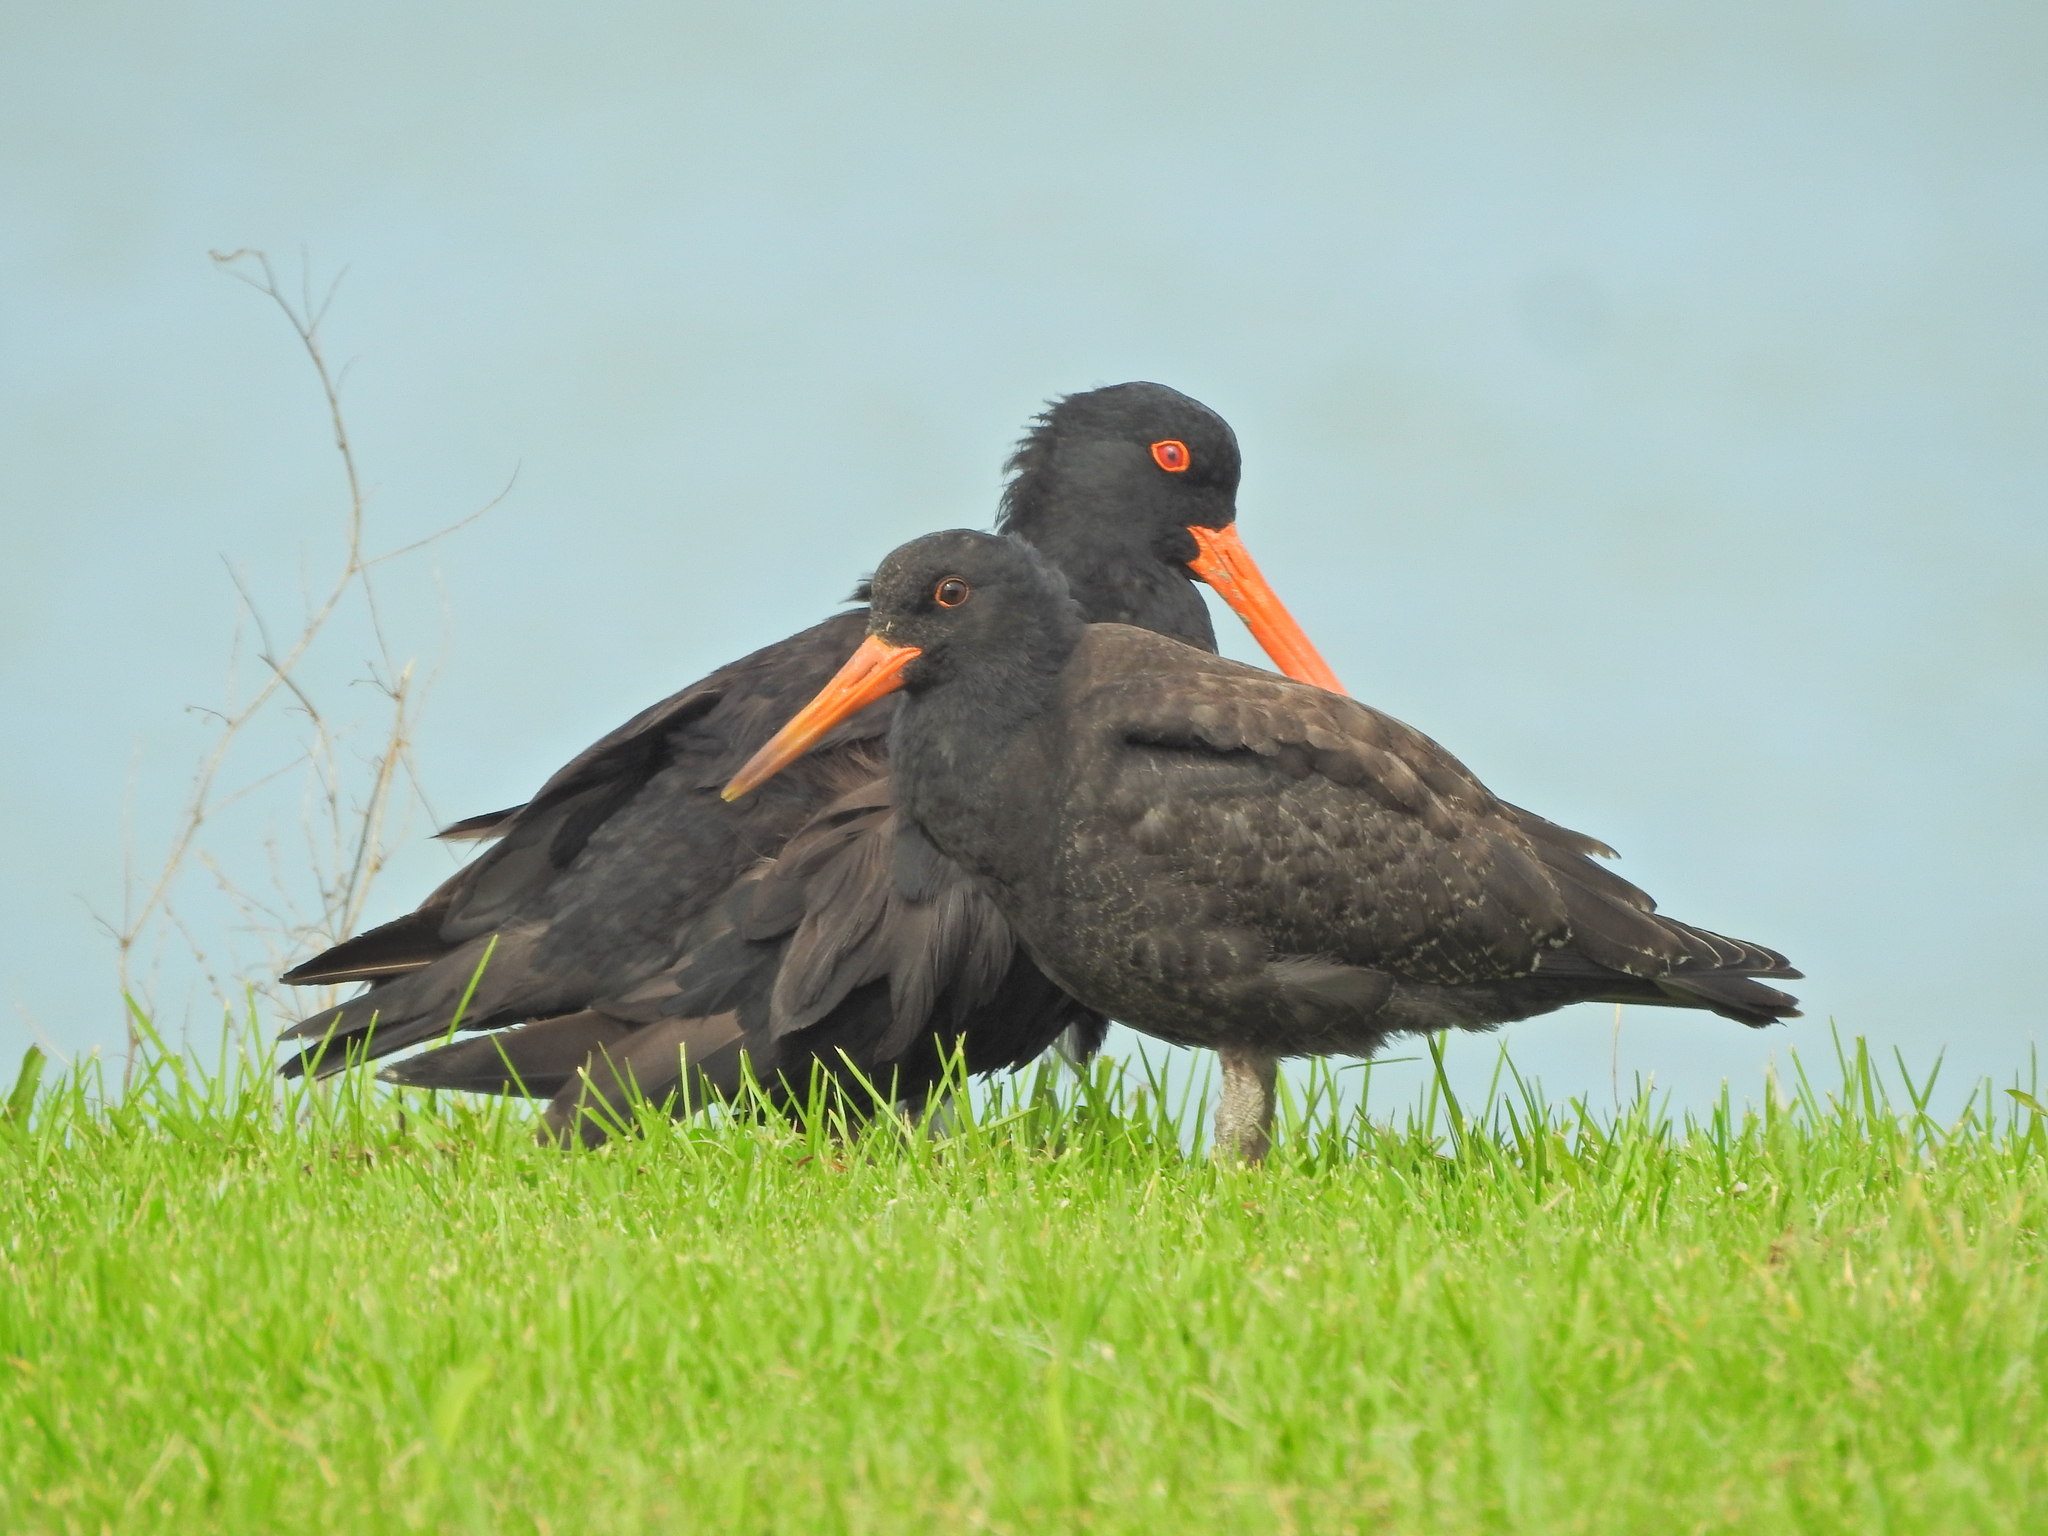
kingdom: Animalia
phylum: Chordata
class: Aves
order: Charadriiformes
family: Haematopodidae
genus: Haematopus
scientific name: Haematopus unicolor
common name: Variable oystercatcher
